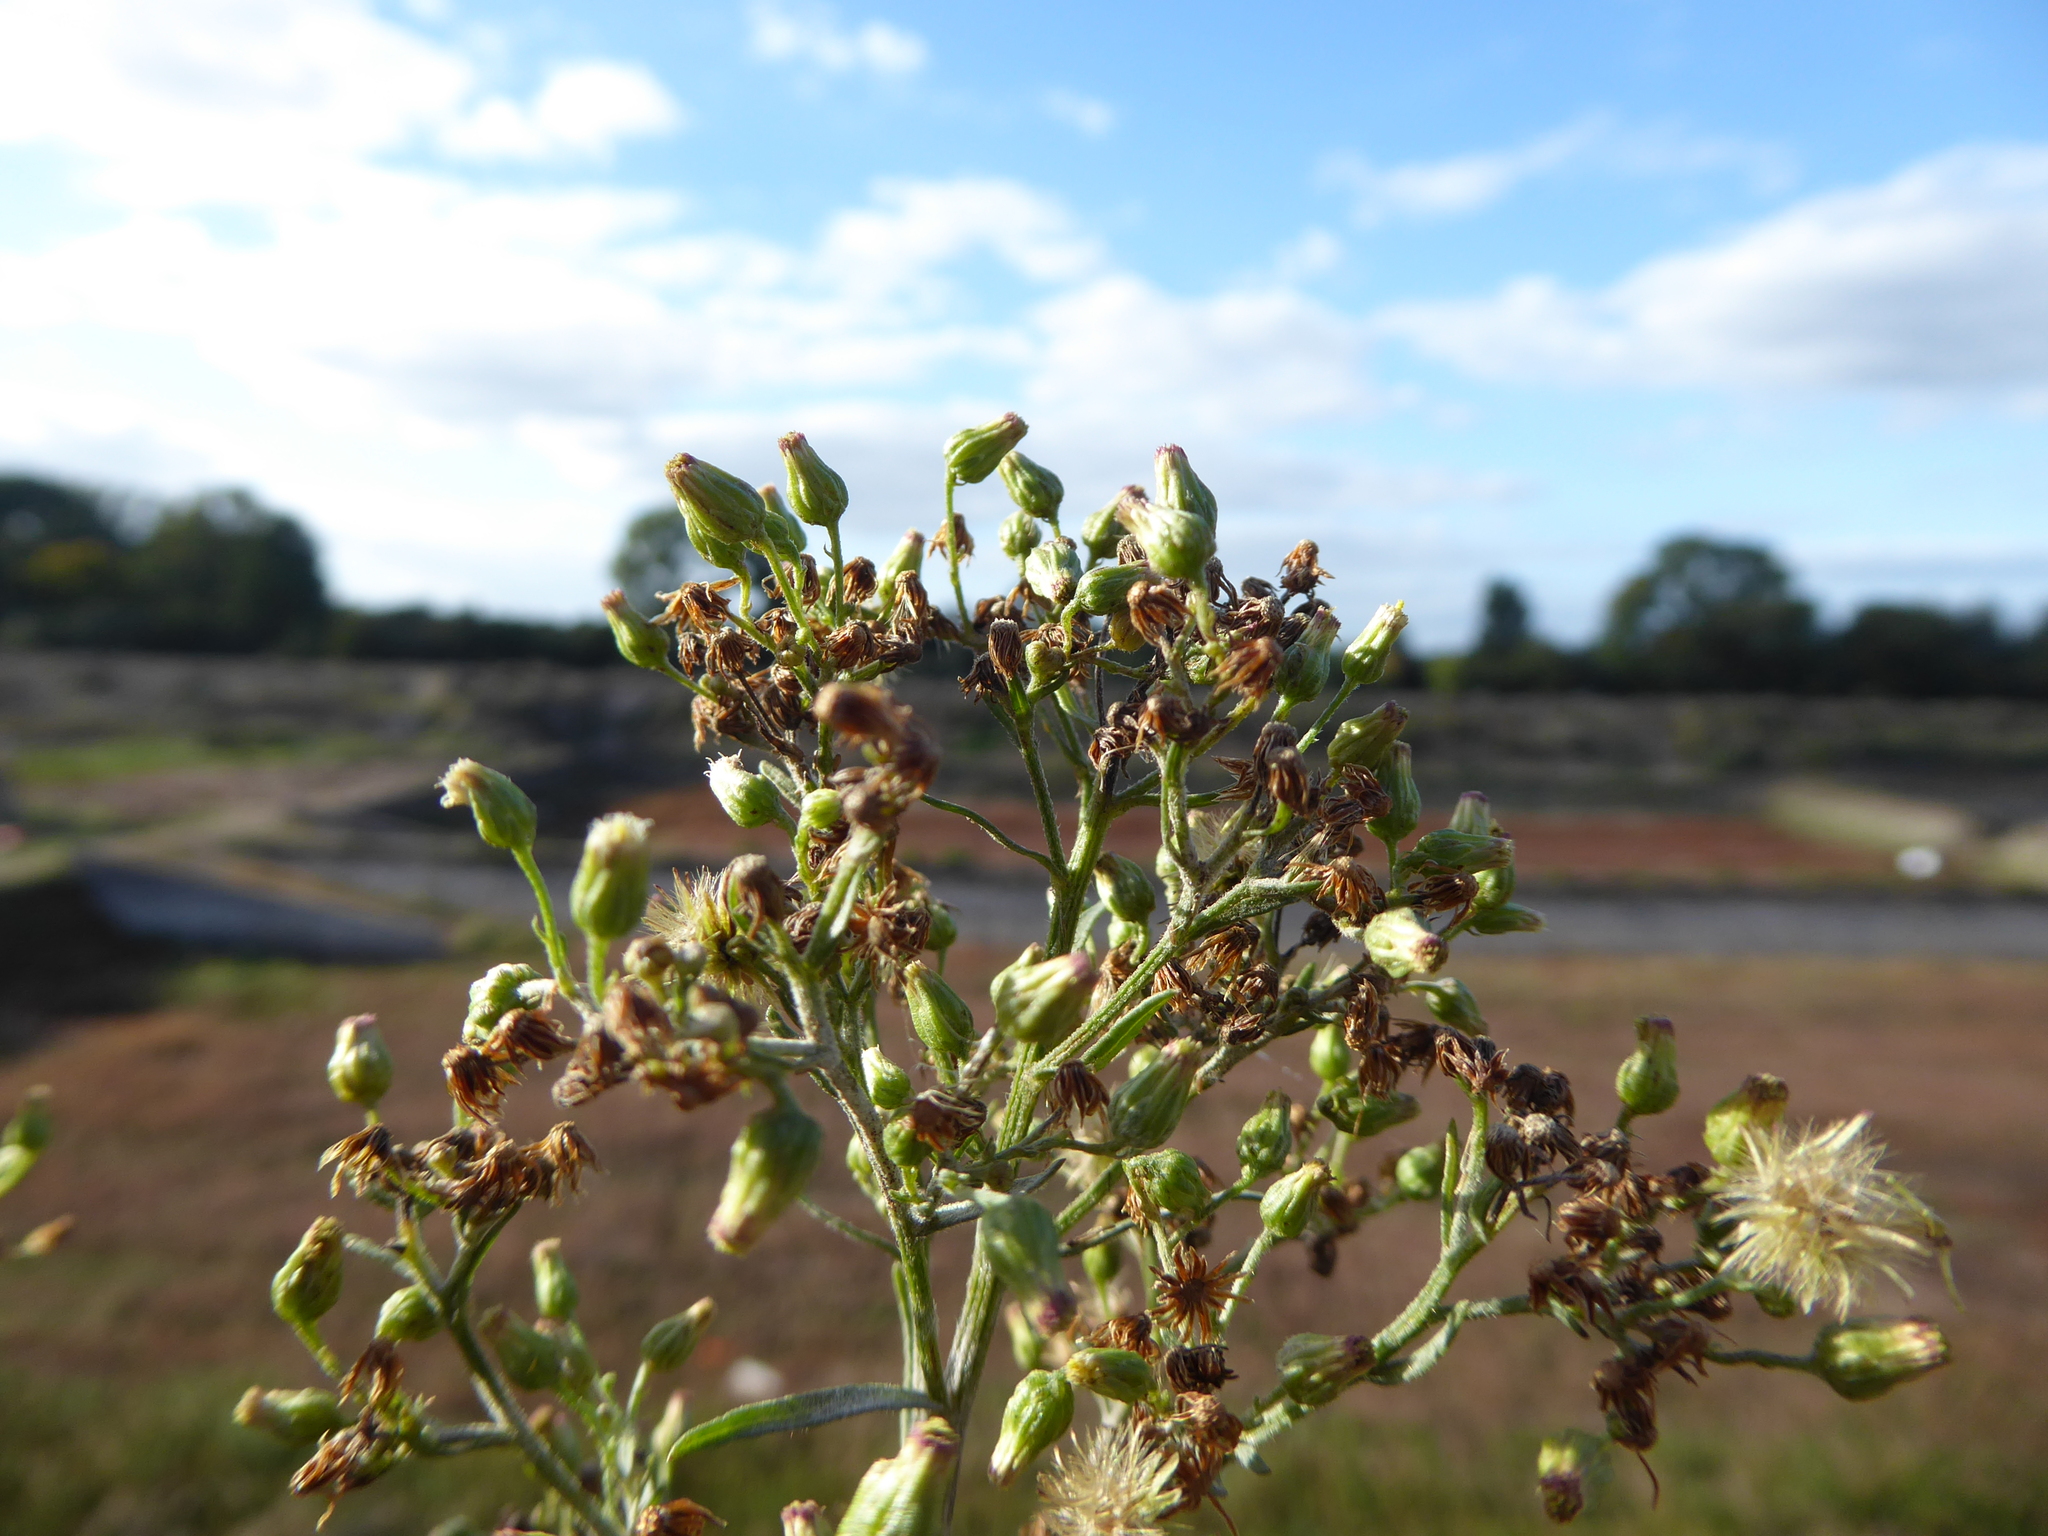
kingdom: Plantae
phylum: Tracheophyta
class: Magnoliopsida
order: Asterales
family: Asteraceae
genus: Erigeron
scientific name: Erigeron floribundus
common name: Bilbao fleabane
